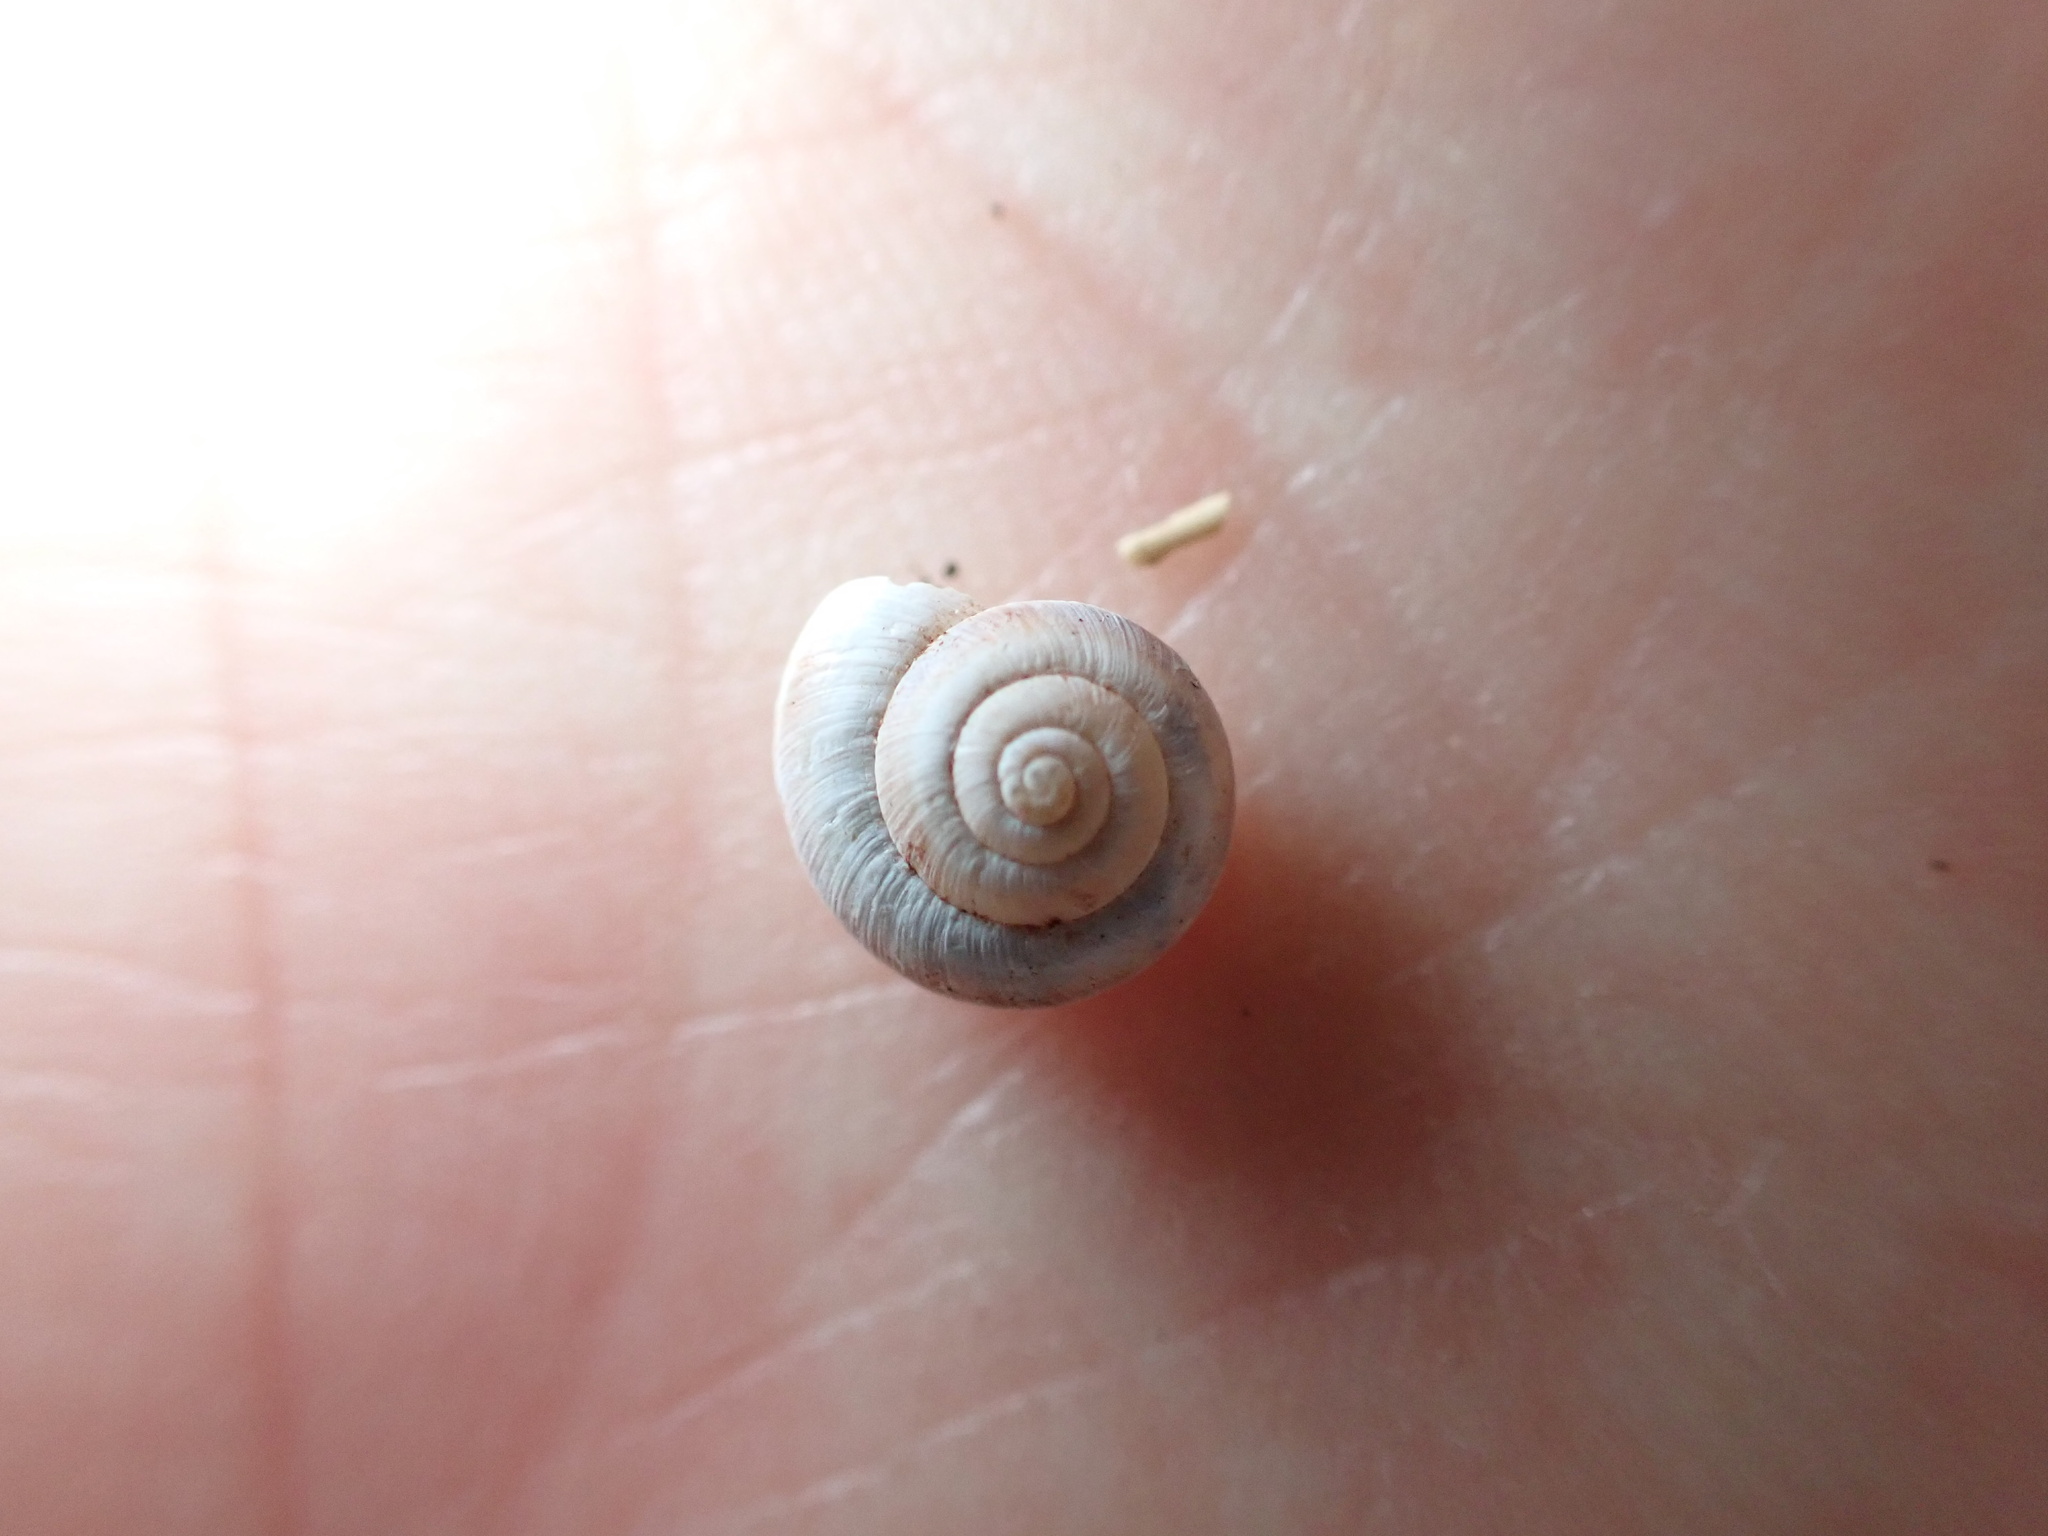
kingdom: Animalia
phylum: Mollusca
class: Gastropoda
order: Stylommatophora
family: Geomitridae
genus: Candidula
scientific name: Candidula unifasciata
